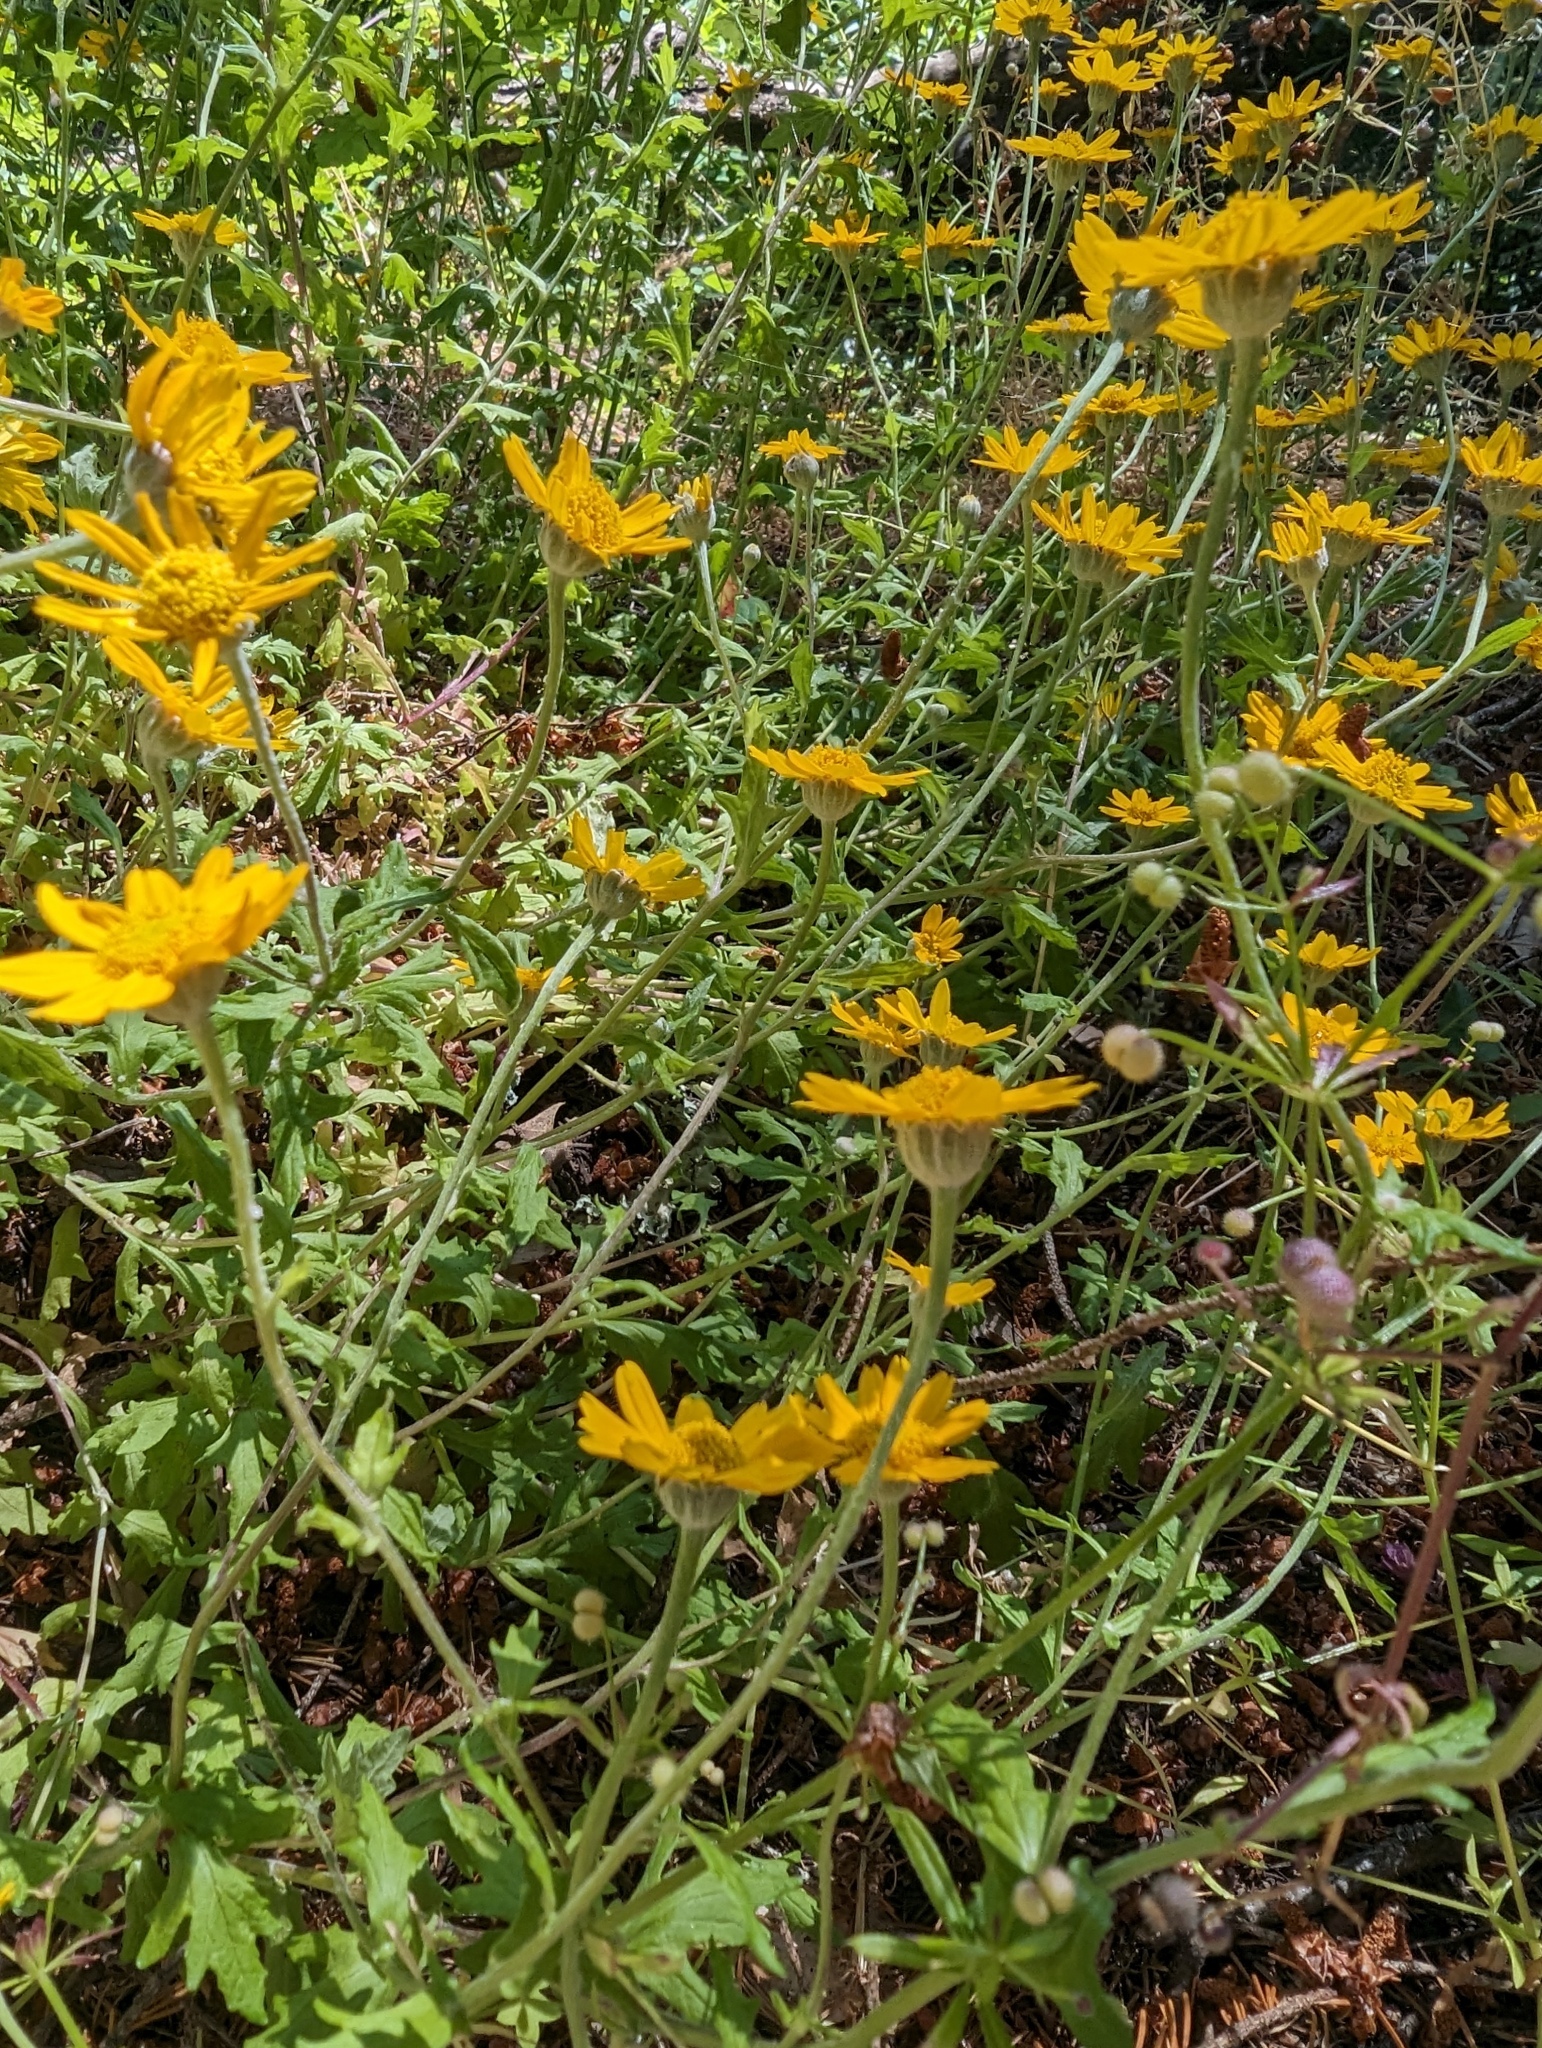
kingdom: Plantae
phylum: Tracheophyta
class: Magnoliopsida
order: Asterales
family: Asteraceae
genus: Eriophyllum
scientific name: Eriophyllum lanatum
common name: Common woolly-sunflower
